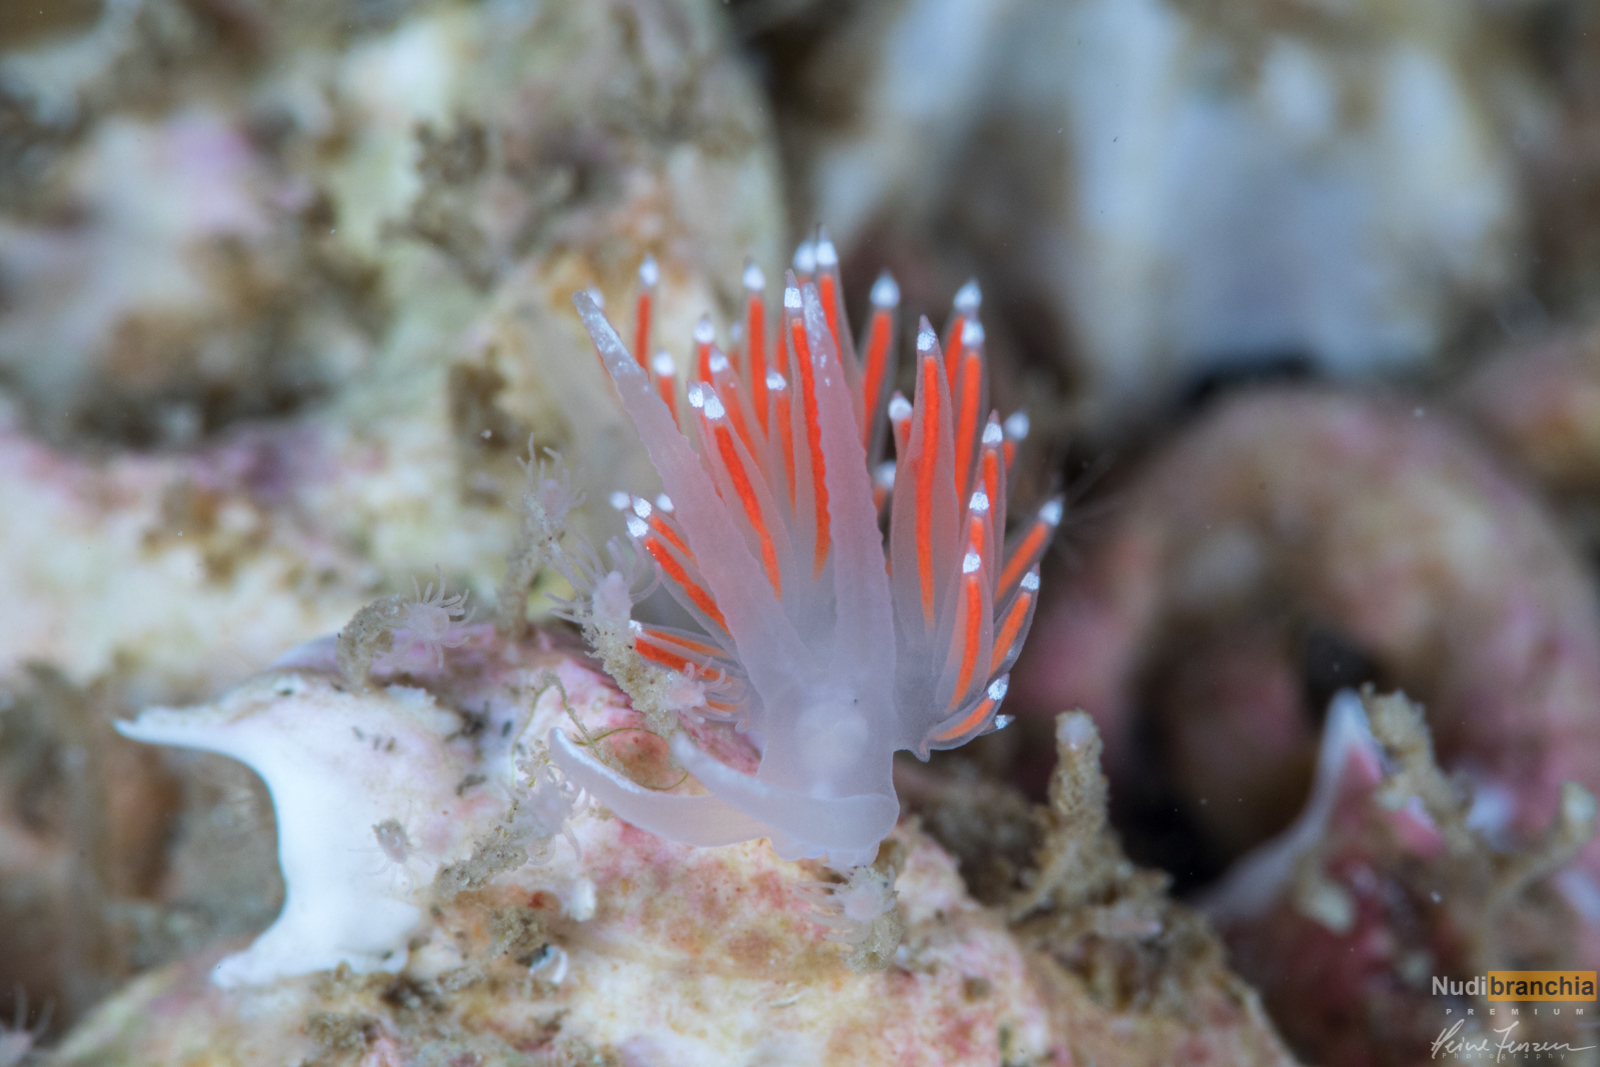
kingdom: Animalia
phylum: Mollusca
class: Gastropoda
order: Nudibranchia
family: Coryphellidae
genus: Coryphella
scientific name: Coryphella browni
